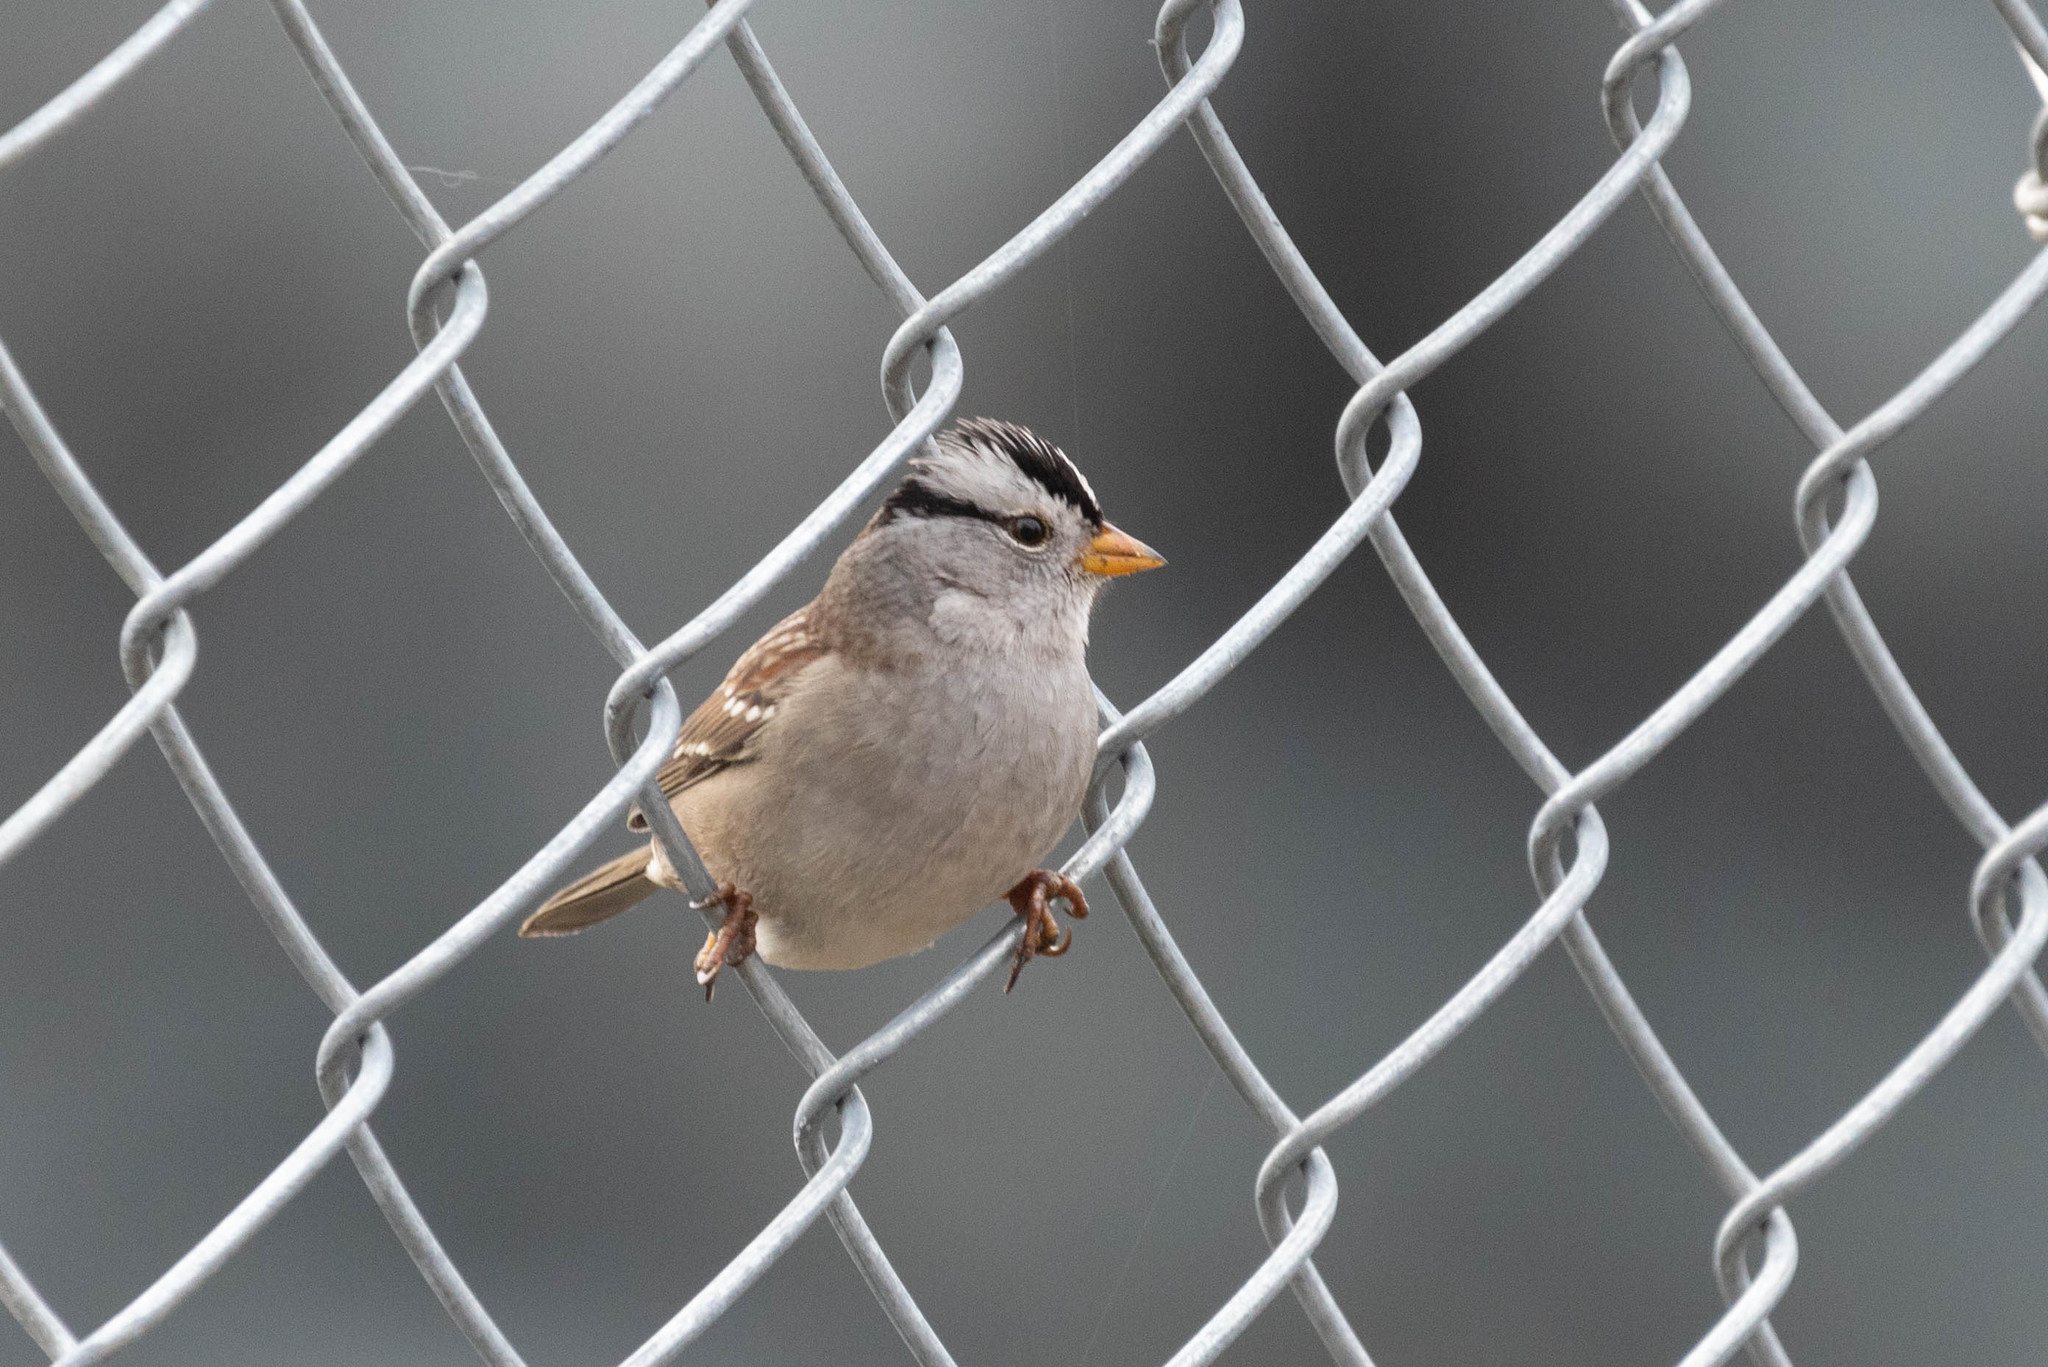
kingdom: Animalia
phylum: Chordata
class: Aves
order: Passeriformes
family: Passerellidae
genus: Zonotrichia
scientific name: Zonotrichia leucophrys
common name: White-crowned sparrow
